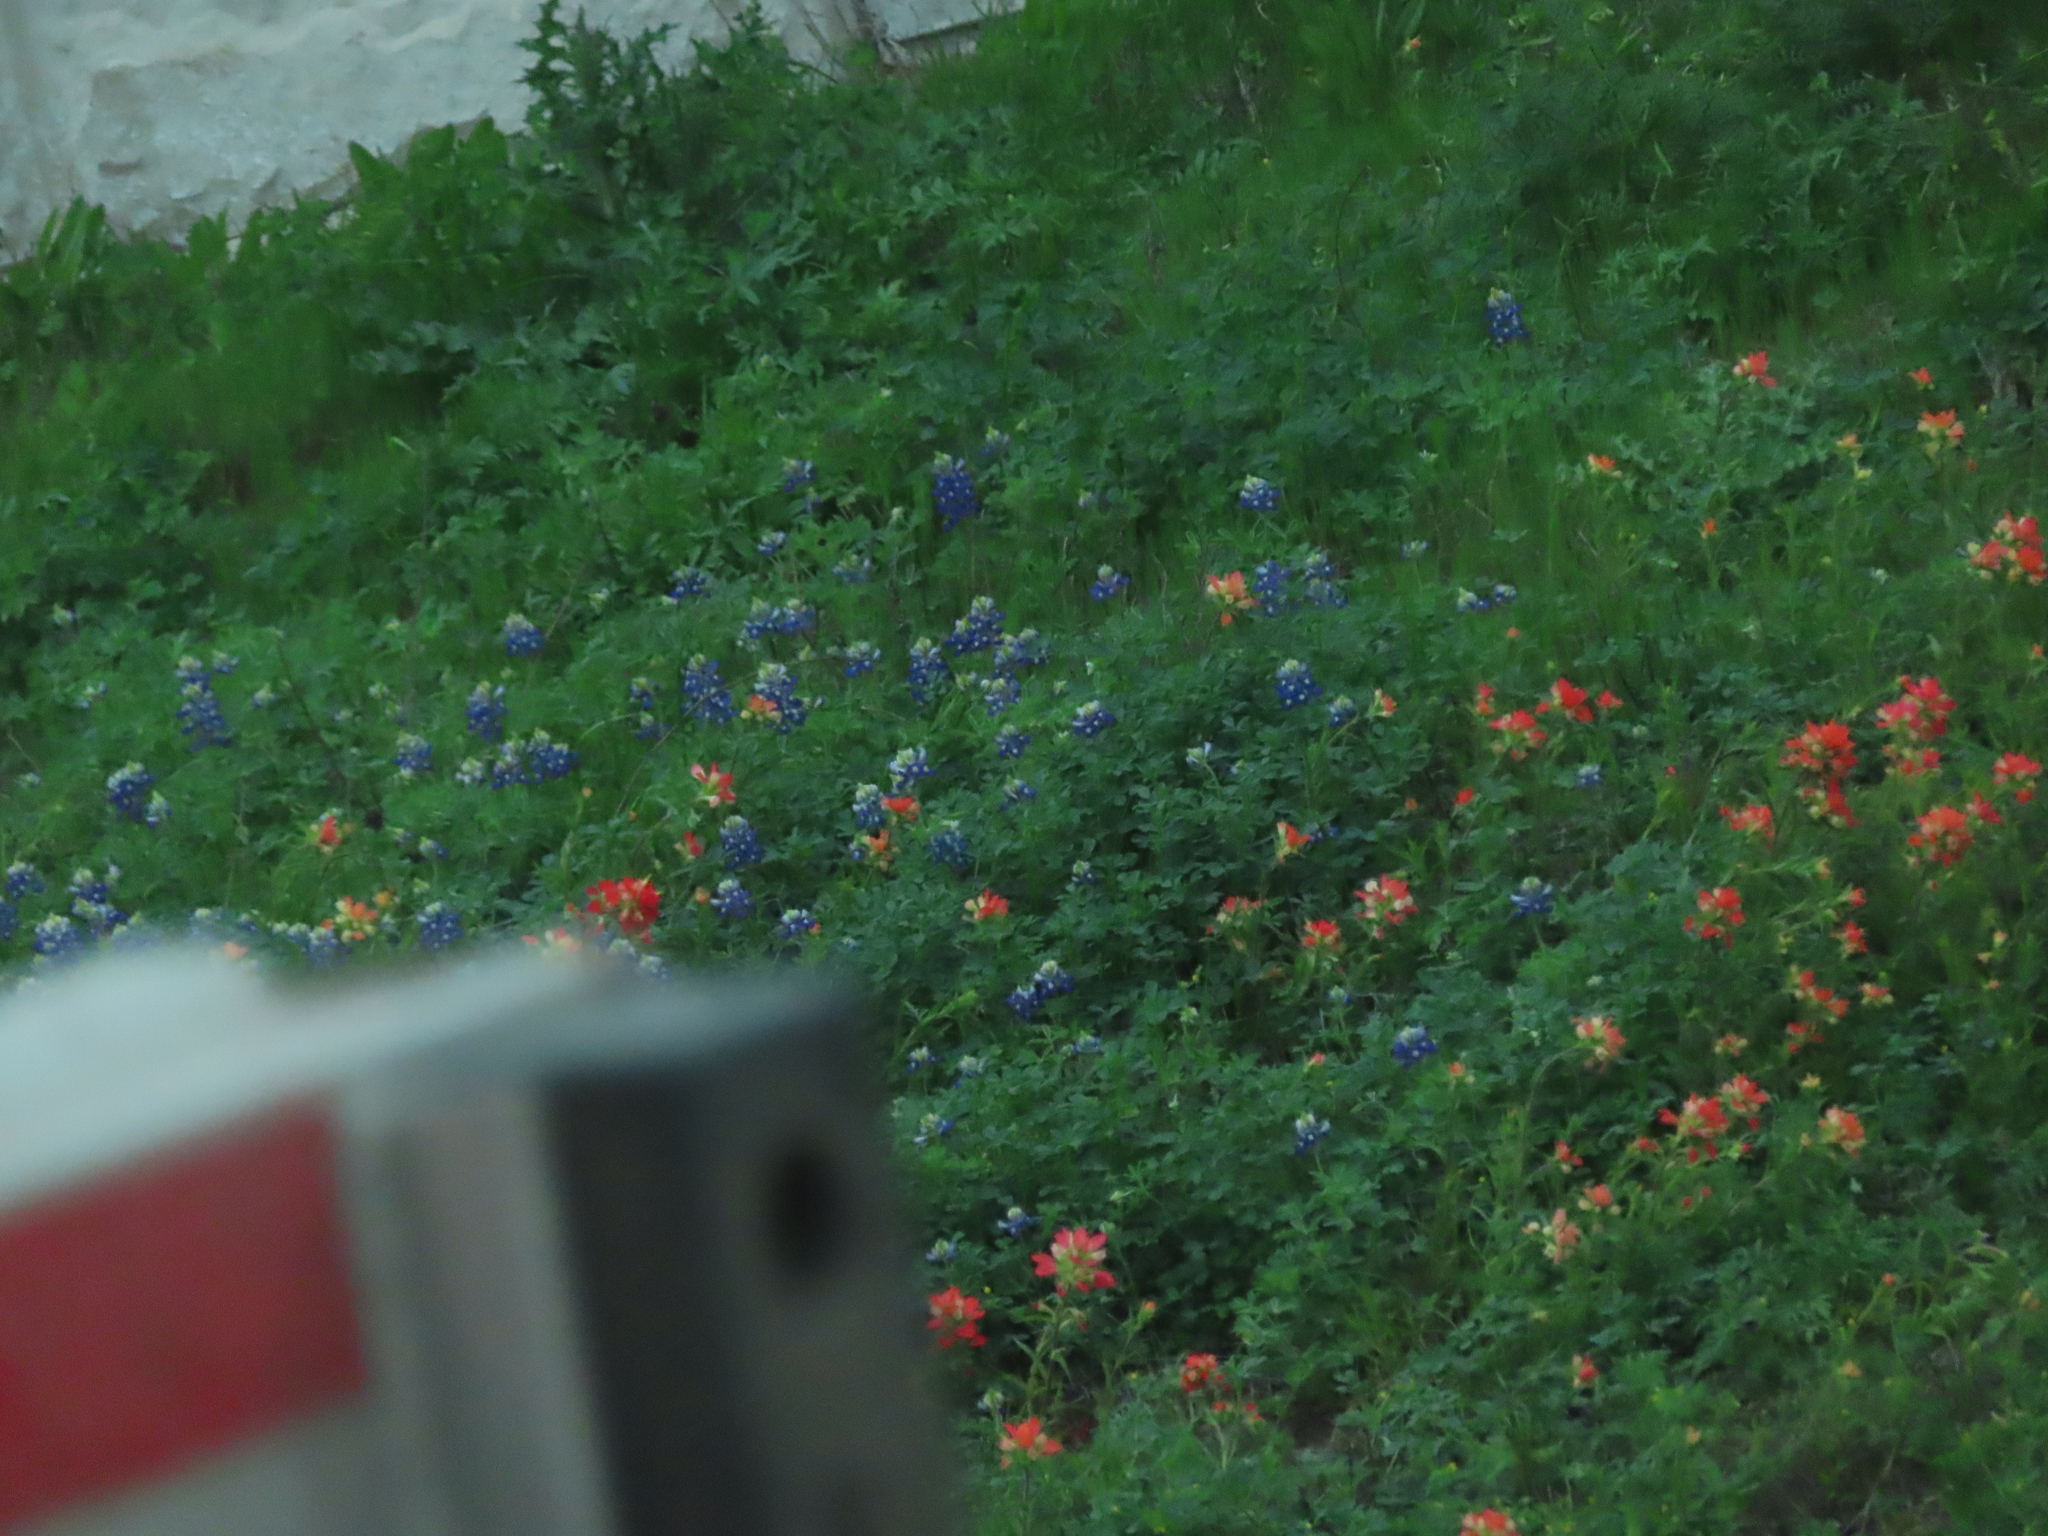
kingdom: Plantae
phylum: Tracheophyta
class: Magnoliopsida
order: Lamiales
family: Orobanchaceae
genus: Castilleja
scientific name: Castilleja indivisa
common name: Texas paintbrush
